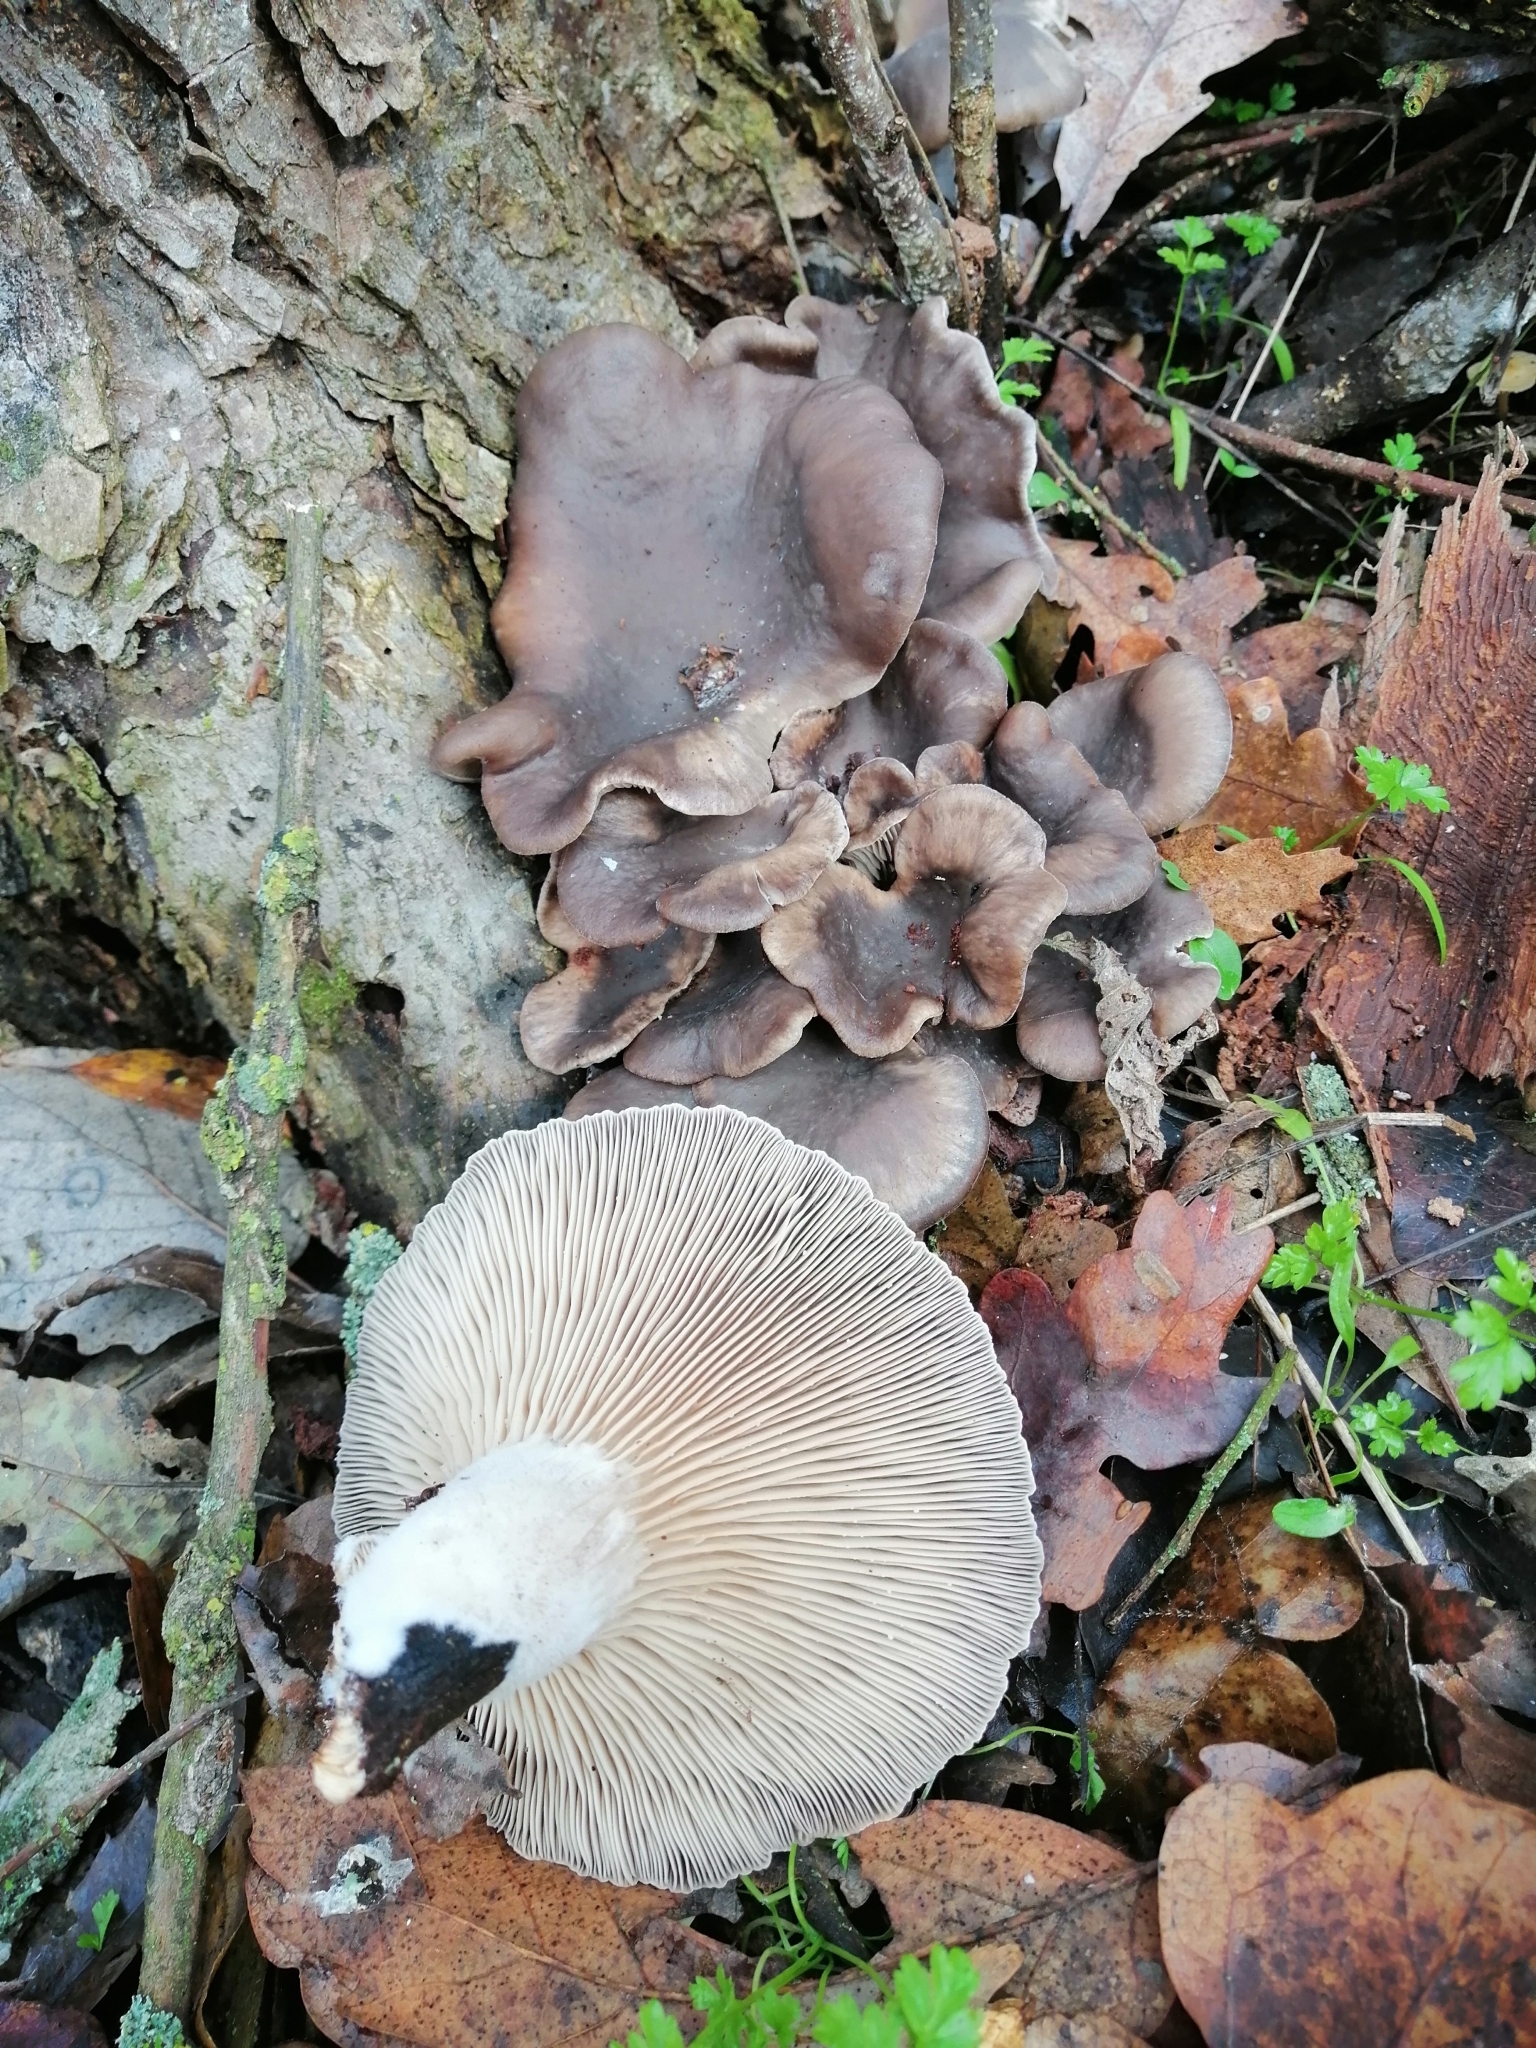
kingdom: Fungi
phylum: Basidiomycota
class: Agaricomycetes
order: Agaricales
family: Pleurotaceae
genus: Pleurotus
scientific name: Pleurotus ostreatus
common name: Oyster mushroom
